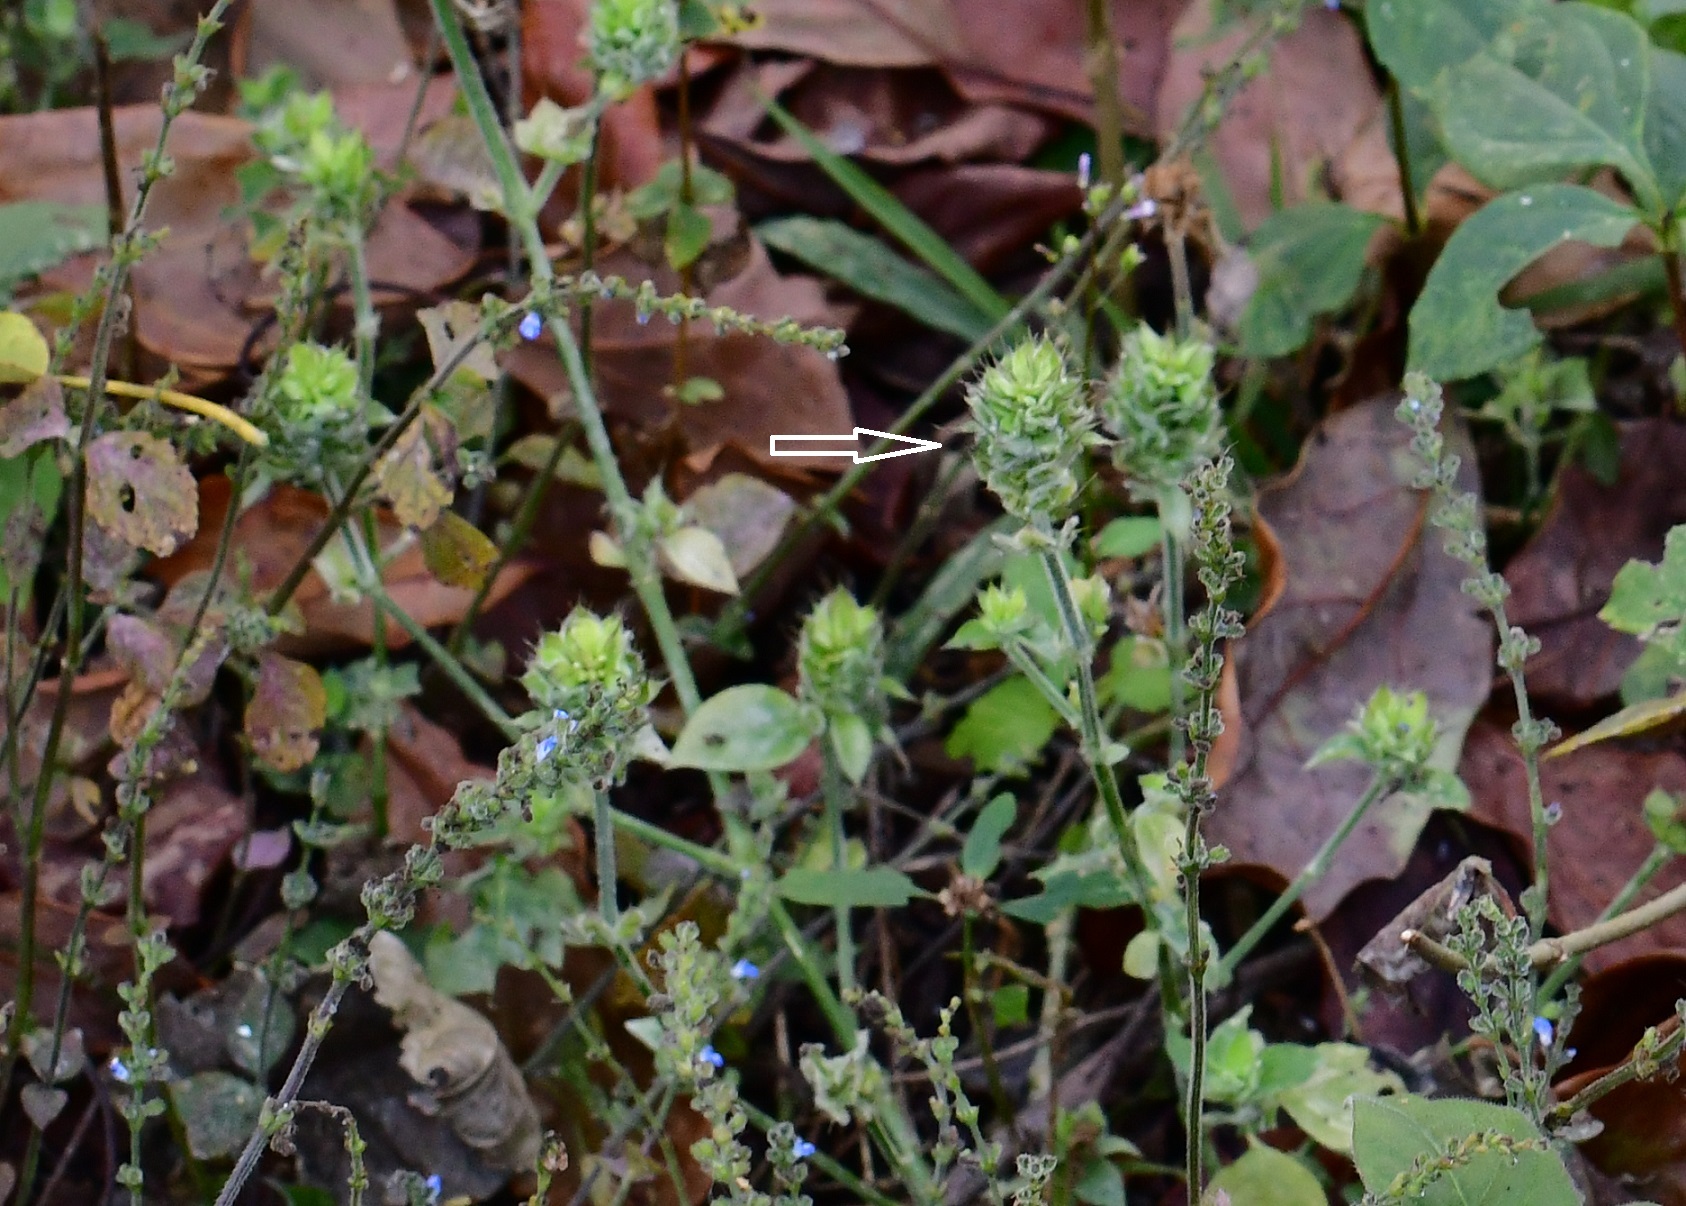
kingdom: Plantae
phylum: Tracheophyta
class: Magnoliopsida
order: Lamiales
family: Acanthaceae
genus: Ruellia
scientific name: Ruellia blechum
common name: Browne's blechum
